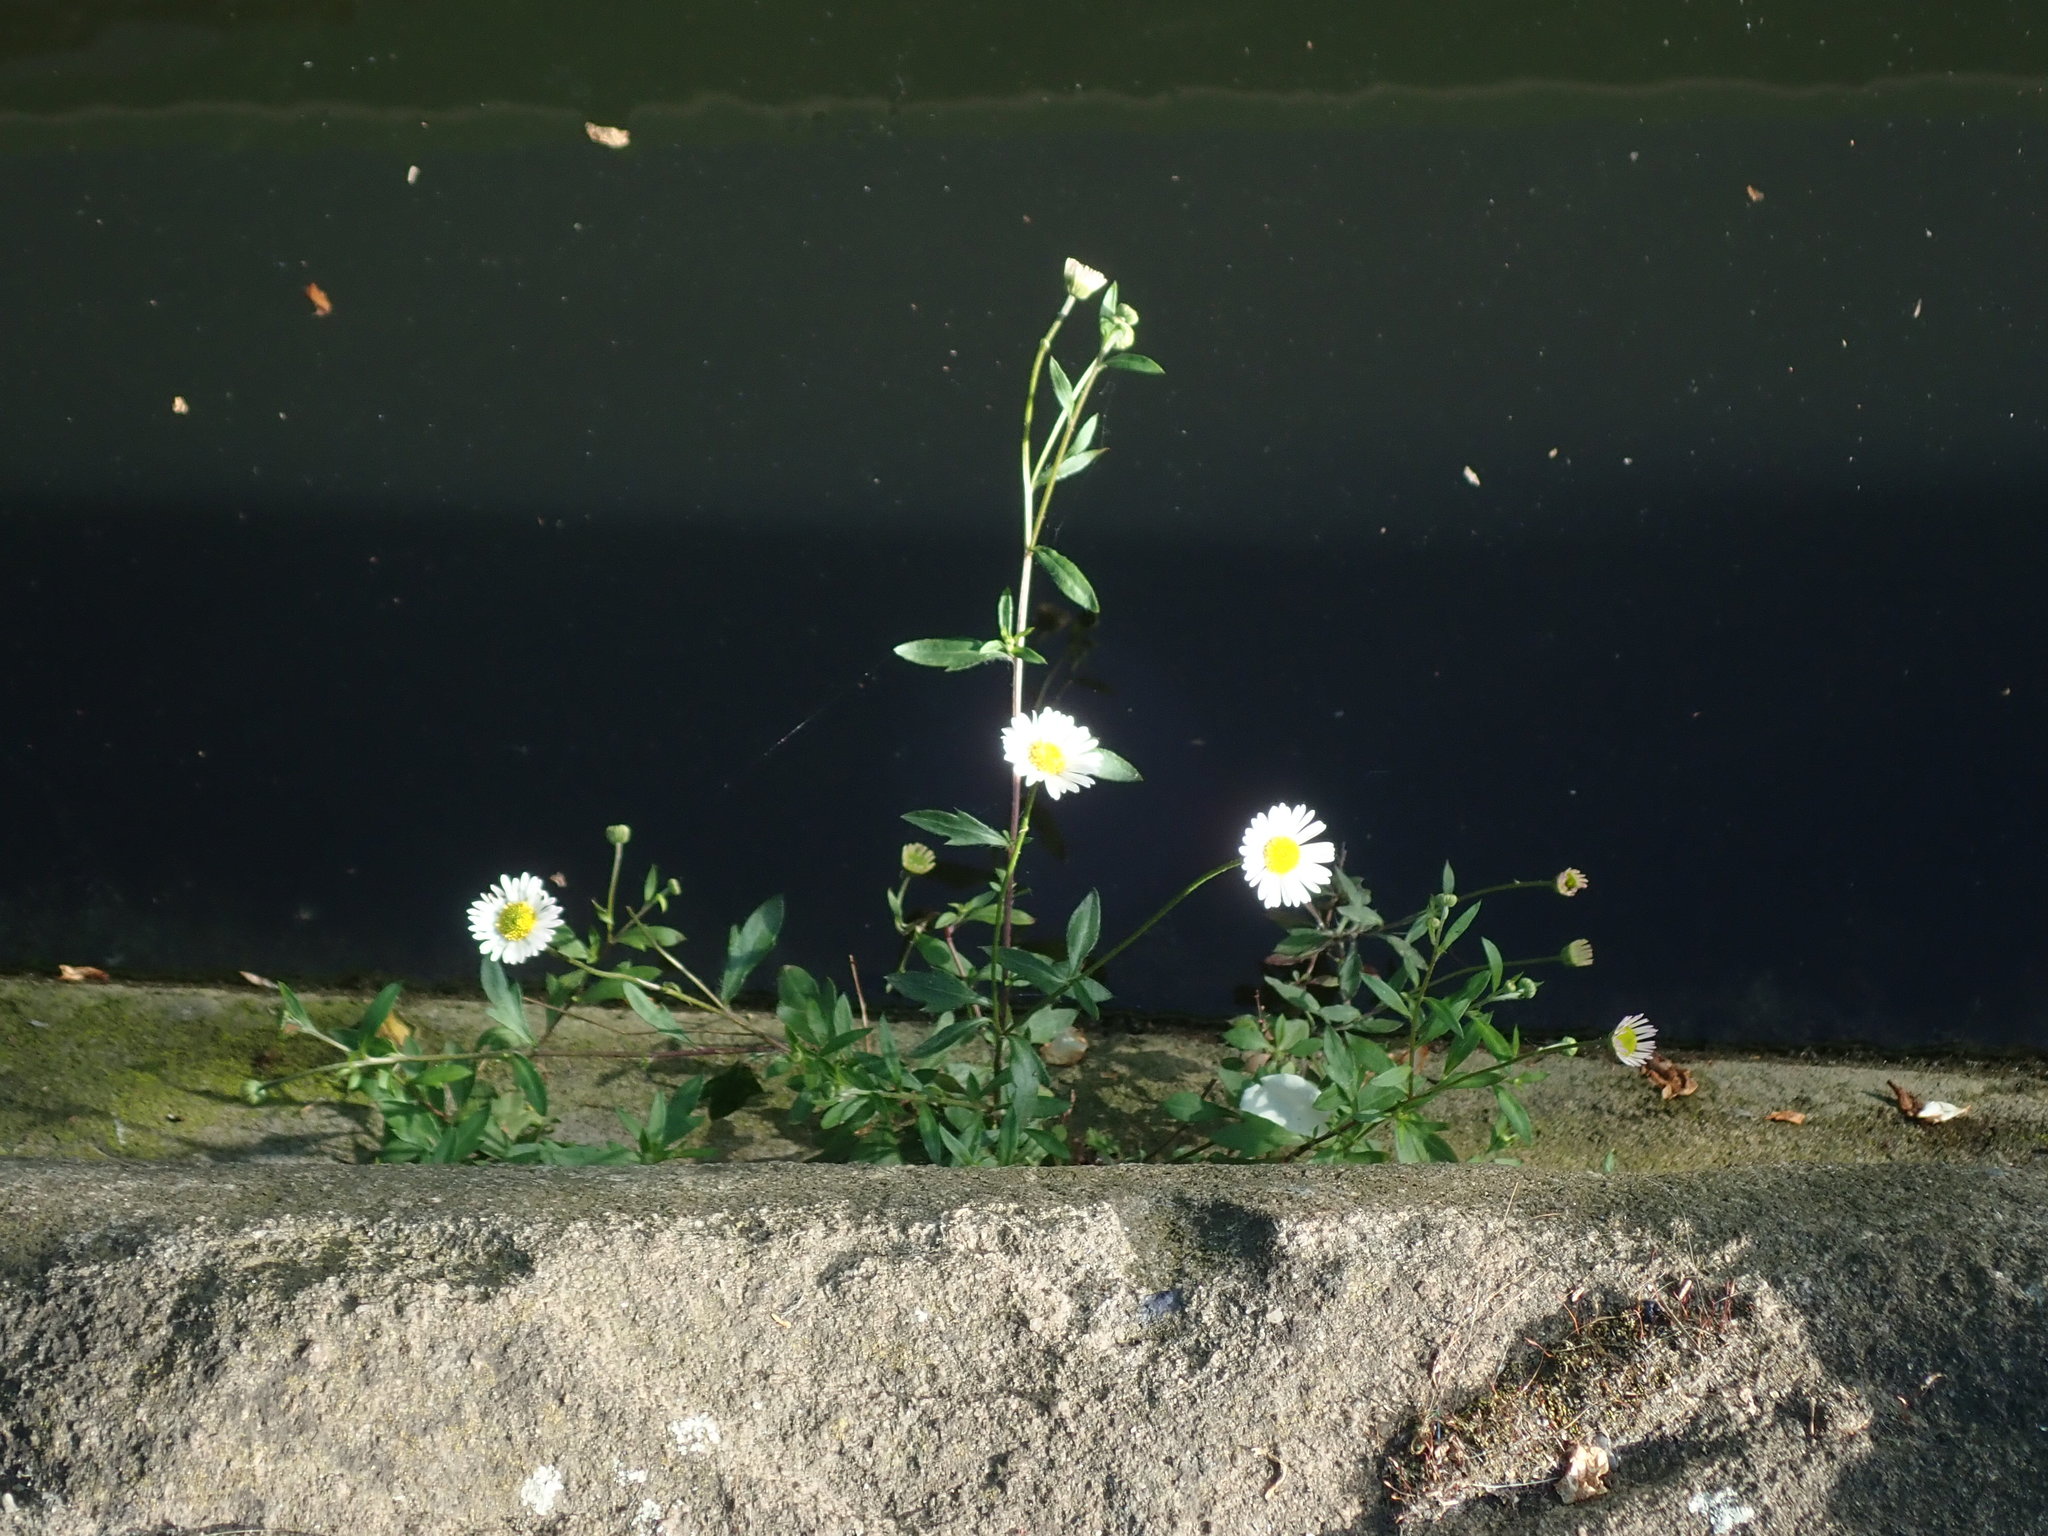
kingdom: Plantae
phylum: Tracheophyta
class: Magnoliopsida
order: Asterales
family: Asteraceae
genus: Erigeron
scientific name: Erigeron karvinskianus
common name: Mexican fleabane
